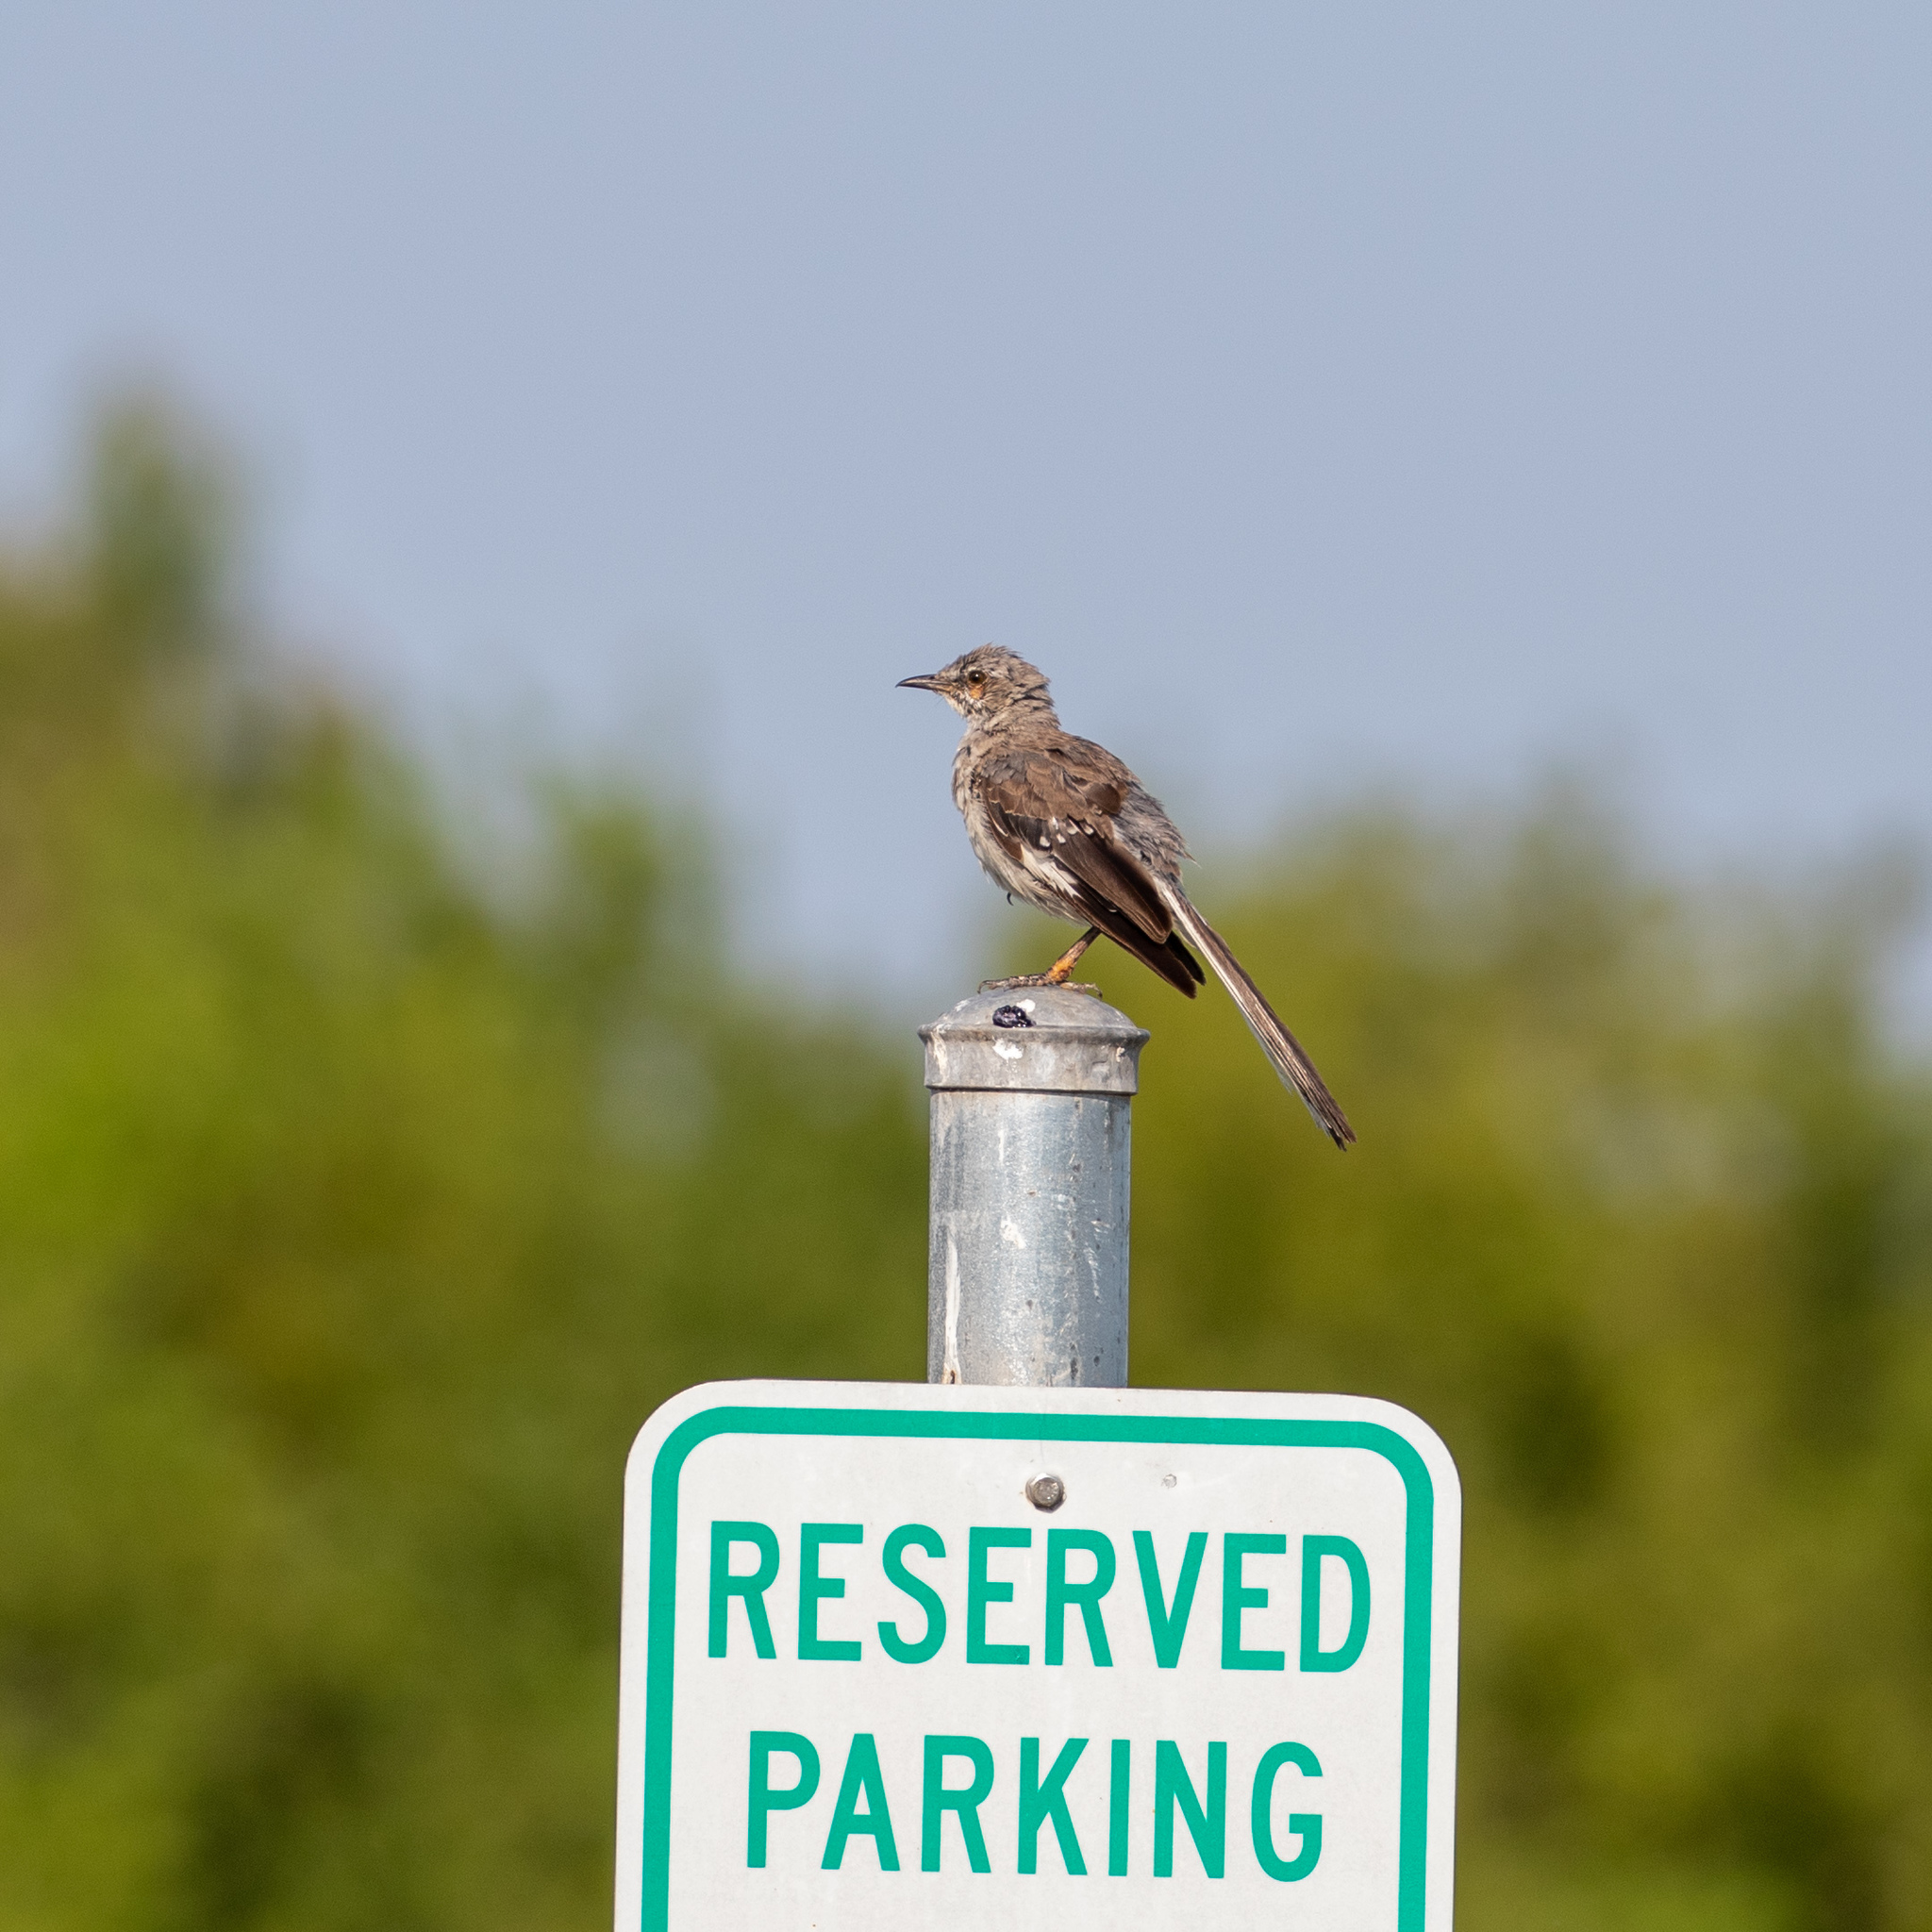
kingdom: Animalia
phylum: Chordata
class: Aves
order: Passeriformes
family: Mimidae
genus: Mimus
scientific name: Mimus polyglottos
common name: Northern mockingbird
